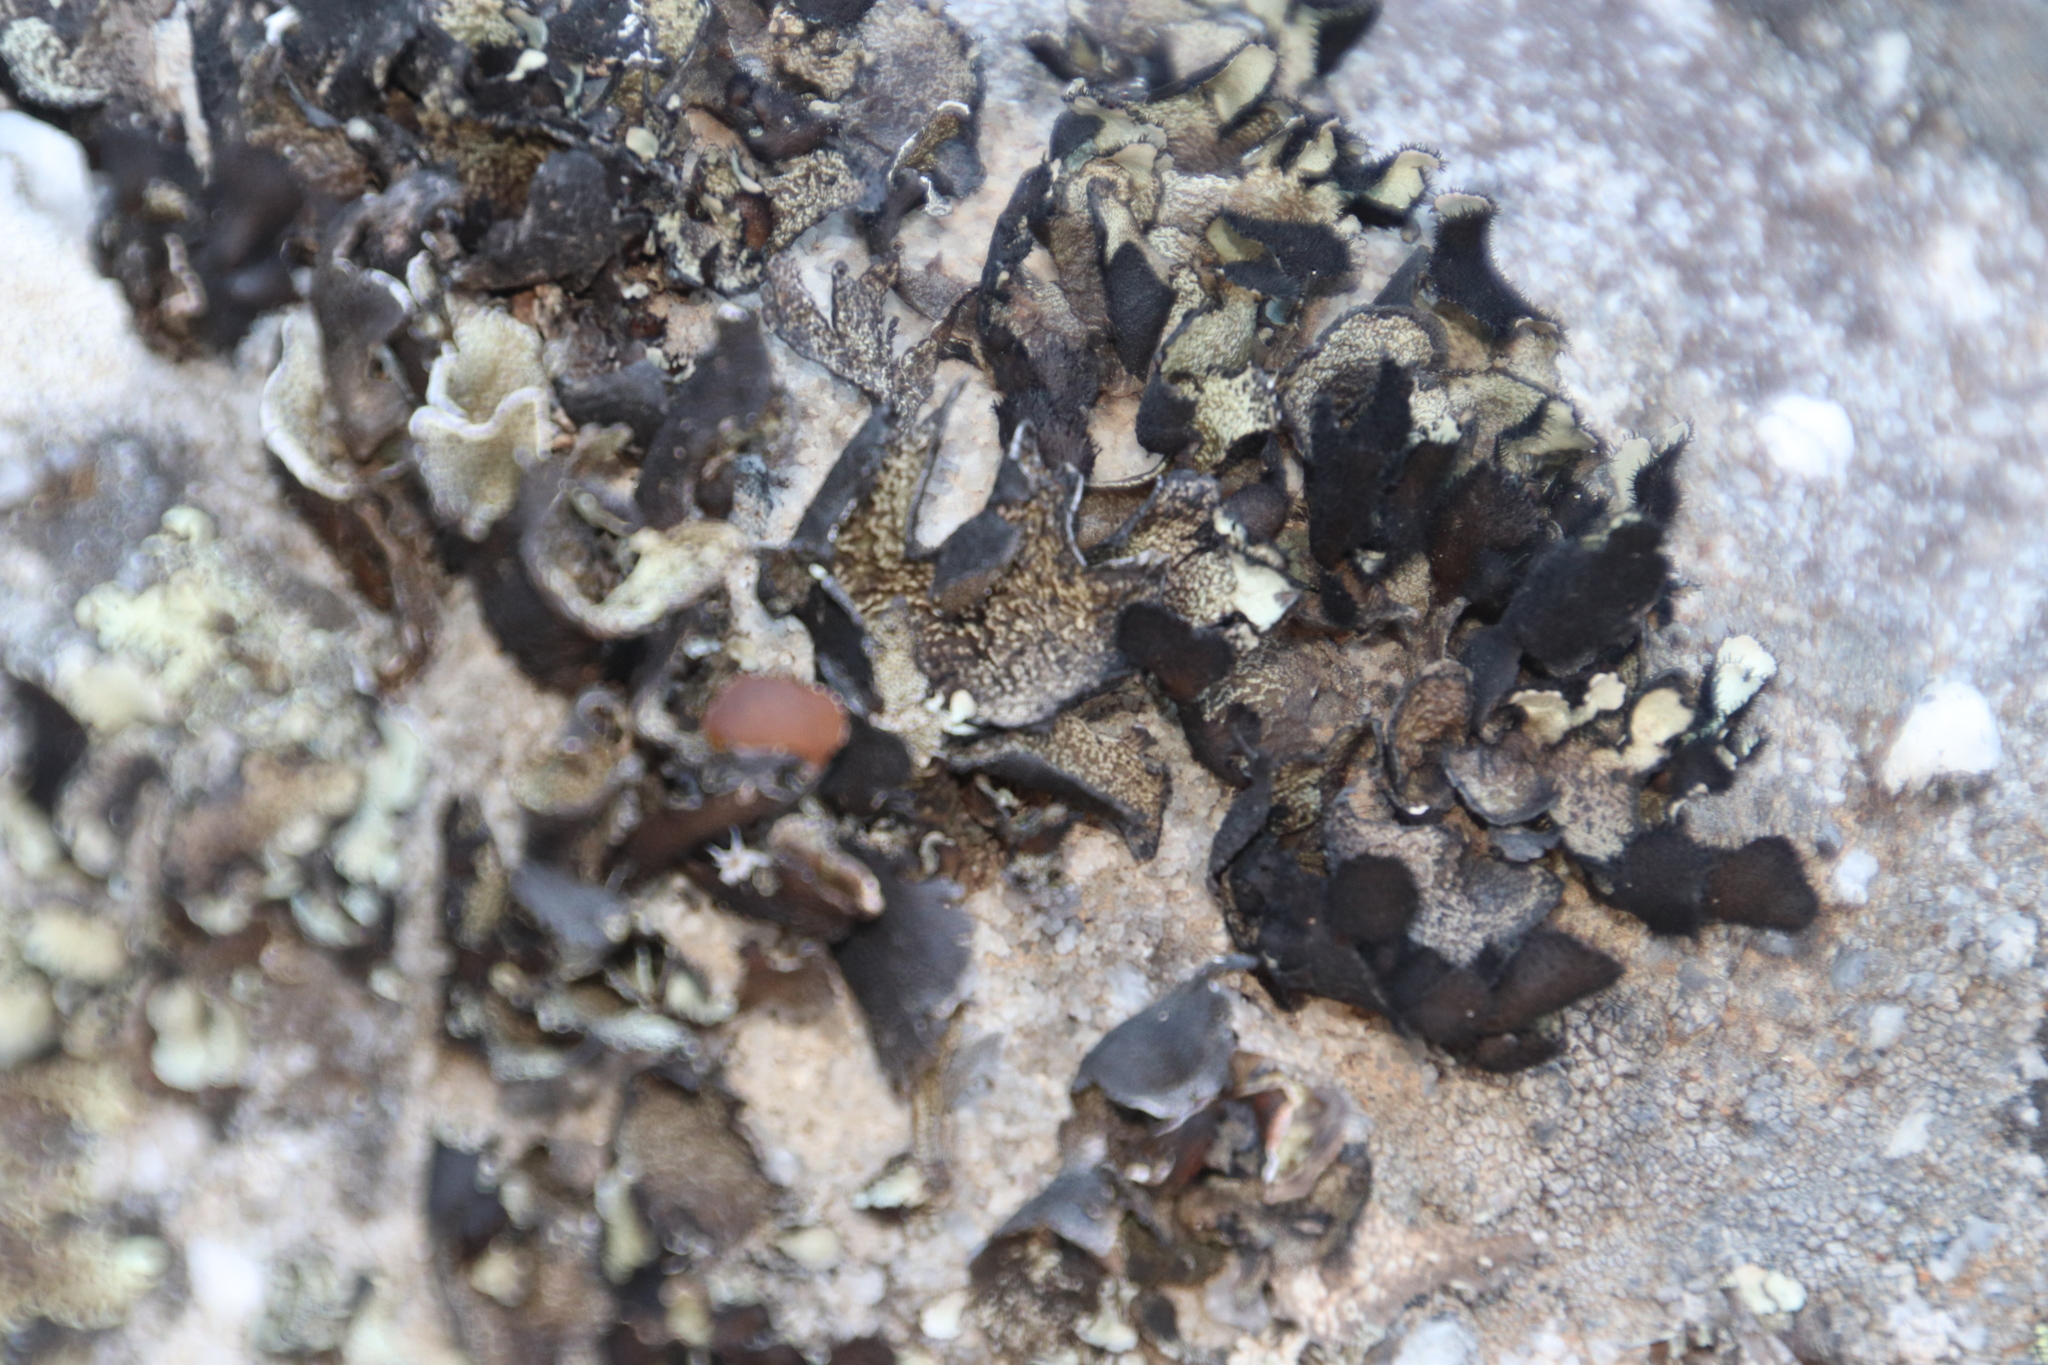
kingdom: Fungi
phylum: Ascomycota
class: Lecanoromycetes
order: Lecanorales
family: Parmeliaceae
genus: Xanthoparmelia
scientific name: Xanthoparmelia hottentotta
